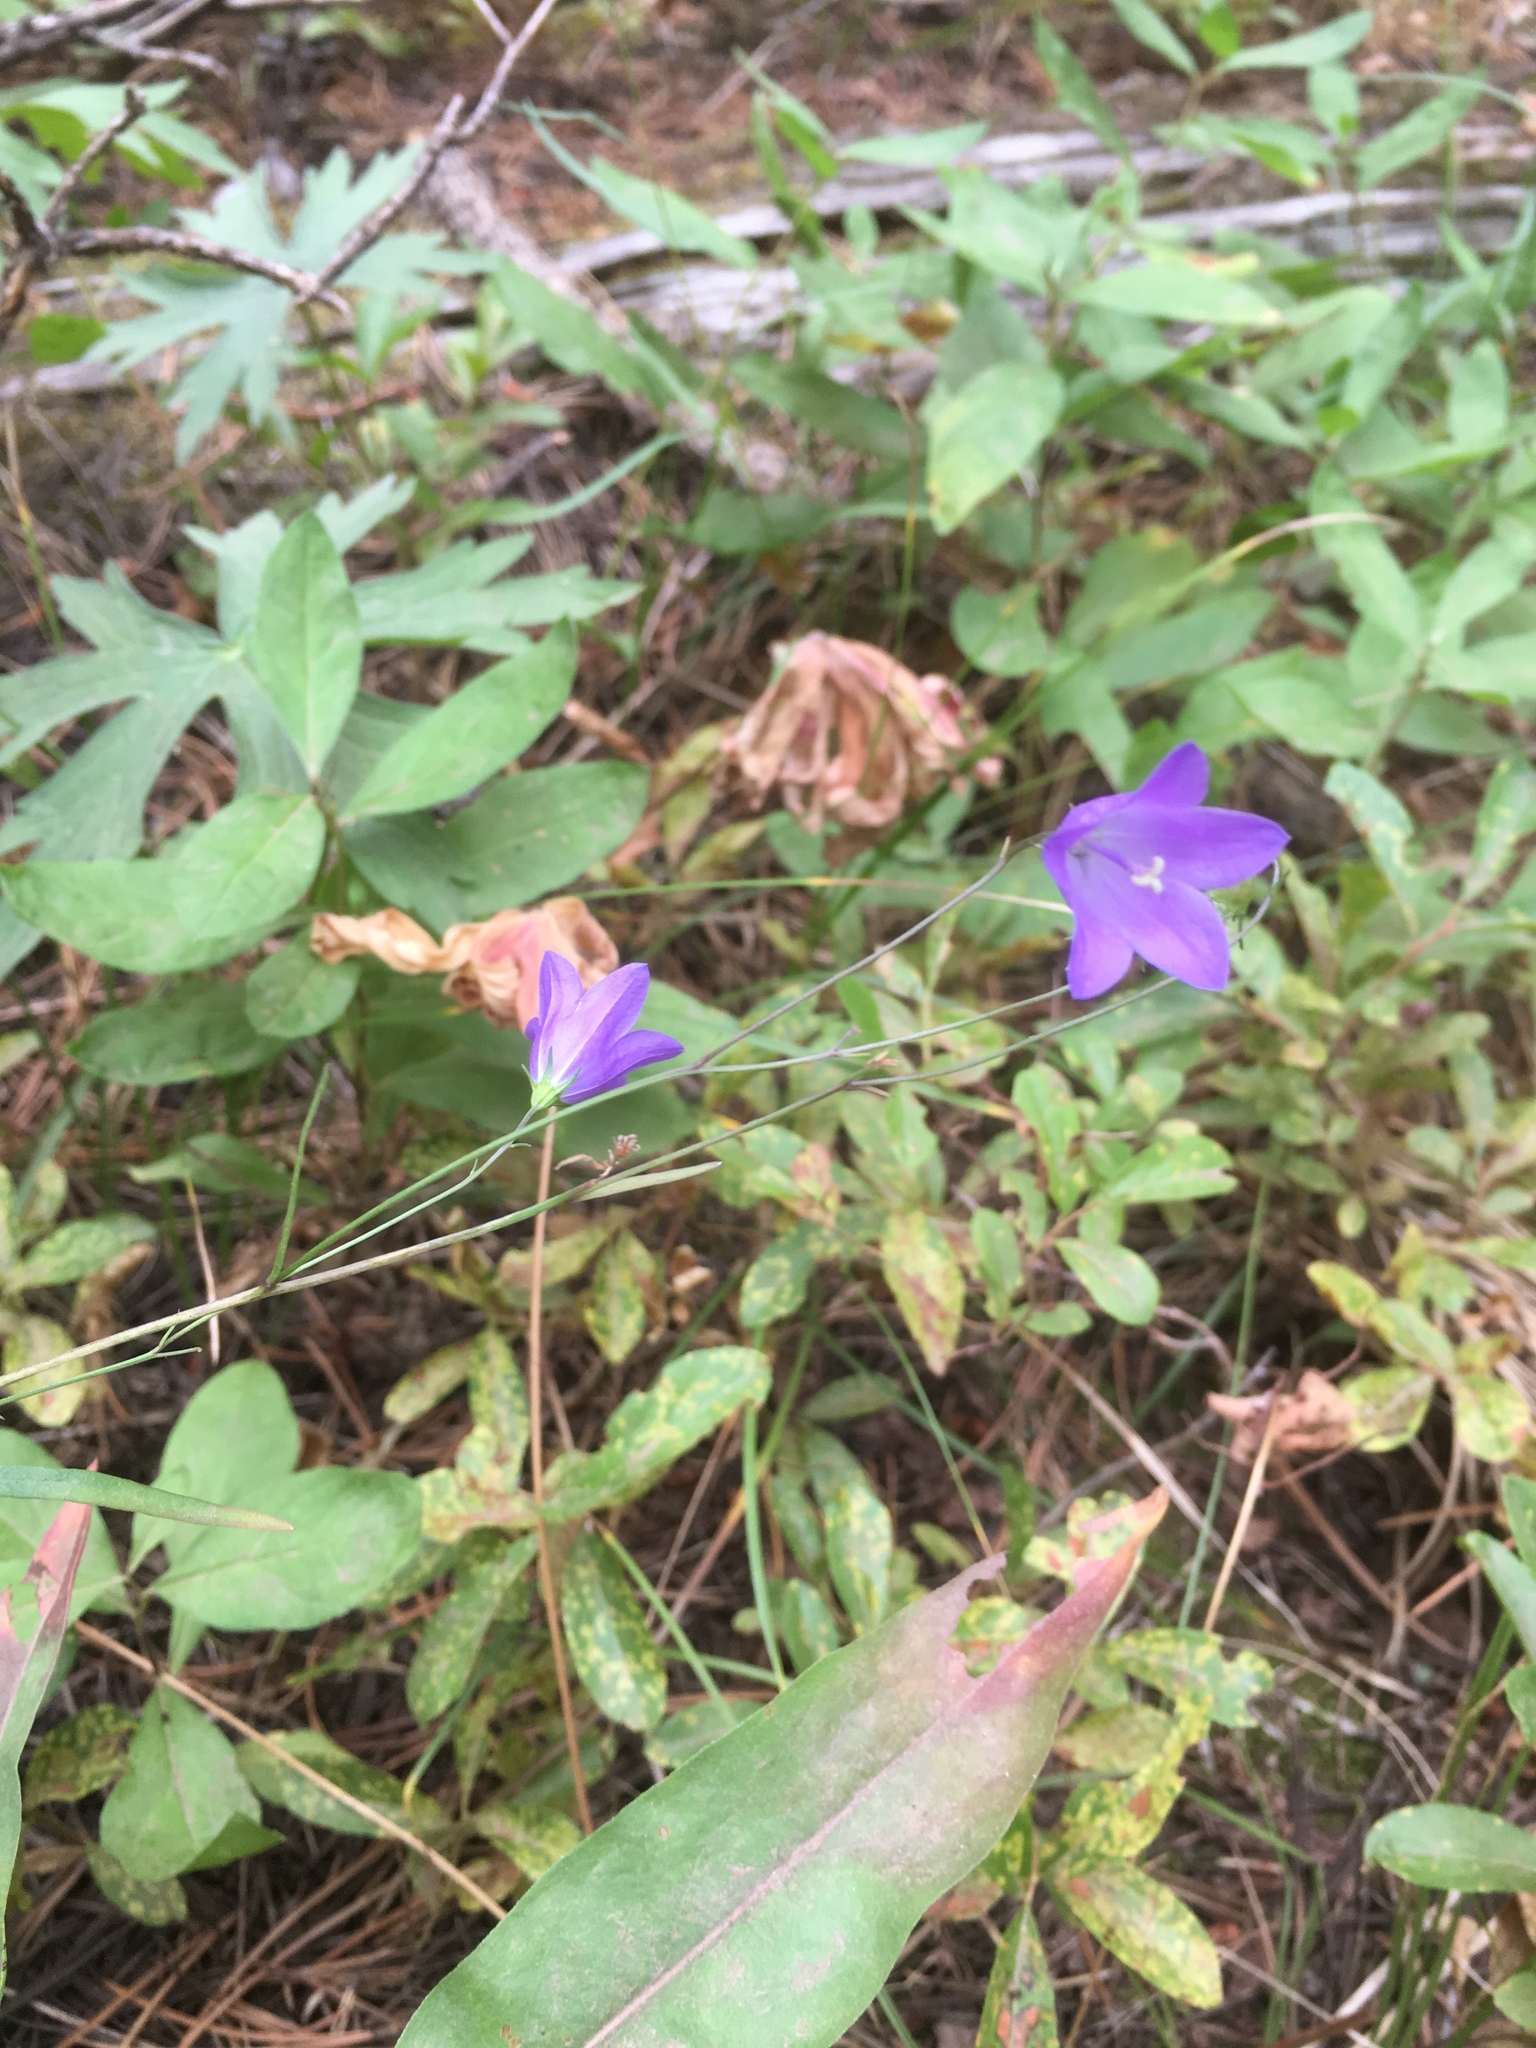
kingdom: Plantae
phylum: Tracheophyta
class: Magnoliopsida
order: Asterales
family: Campanulaceae
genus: Campanula
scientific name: Campanula petiolata
